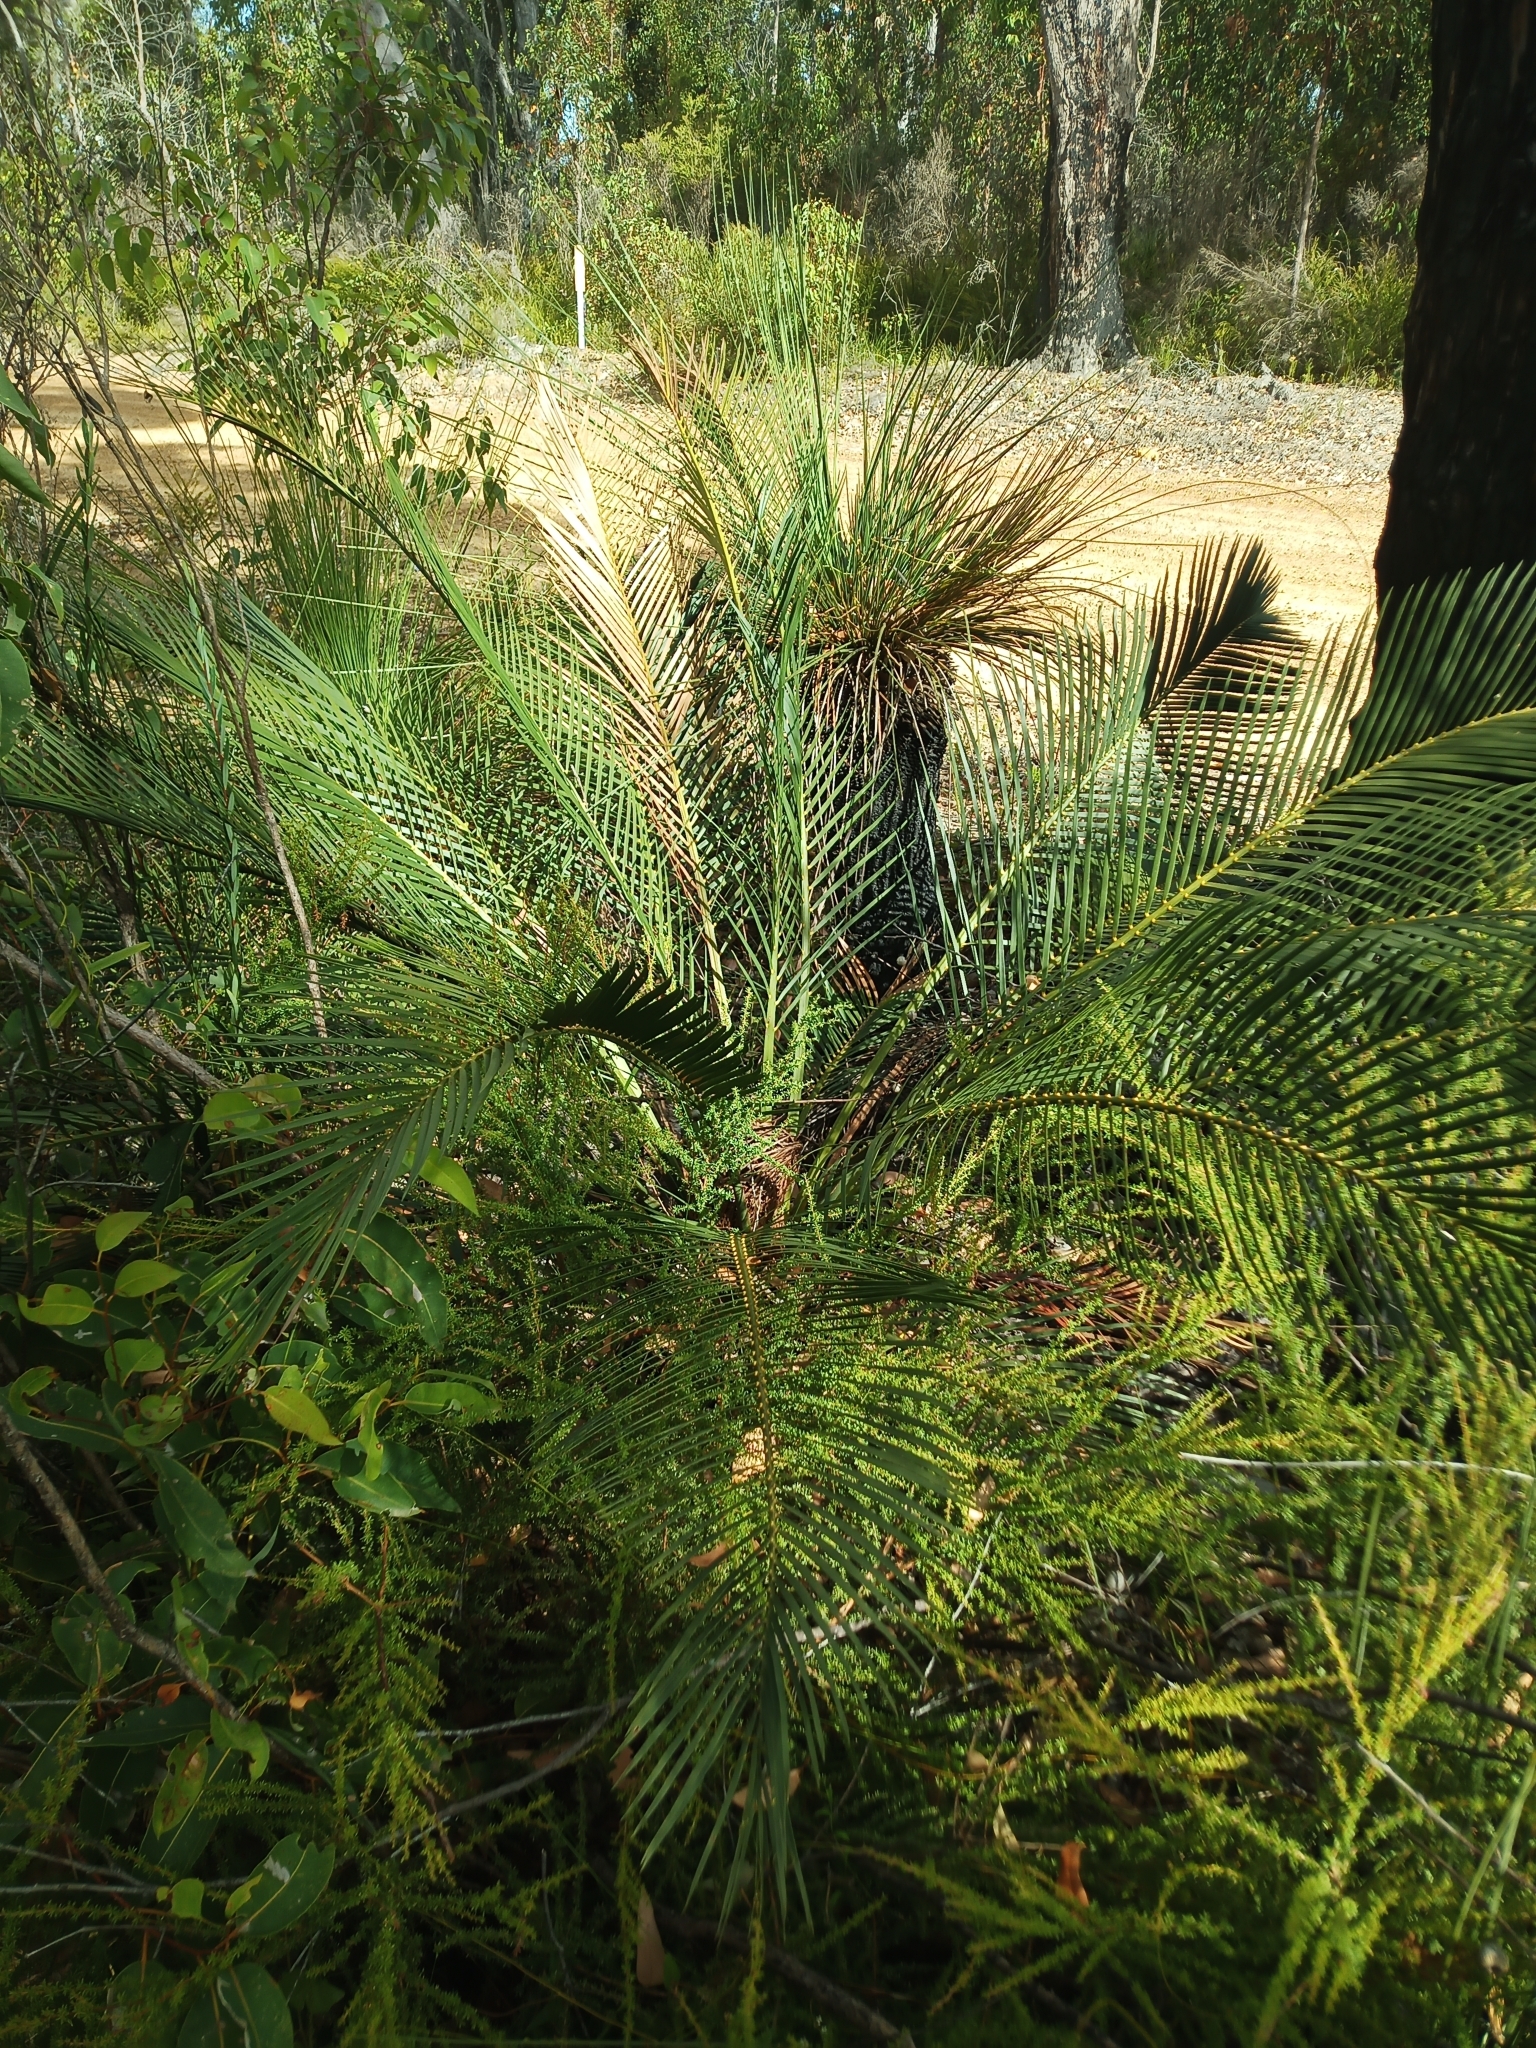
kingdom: Plantae
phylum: Tracheophyta
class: Cycadopsida
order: Cycadales
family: Zamiaceae
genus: Macrozamia
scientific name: Macrozamia riedlei
